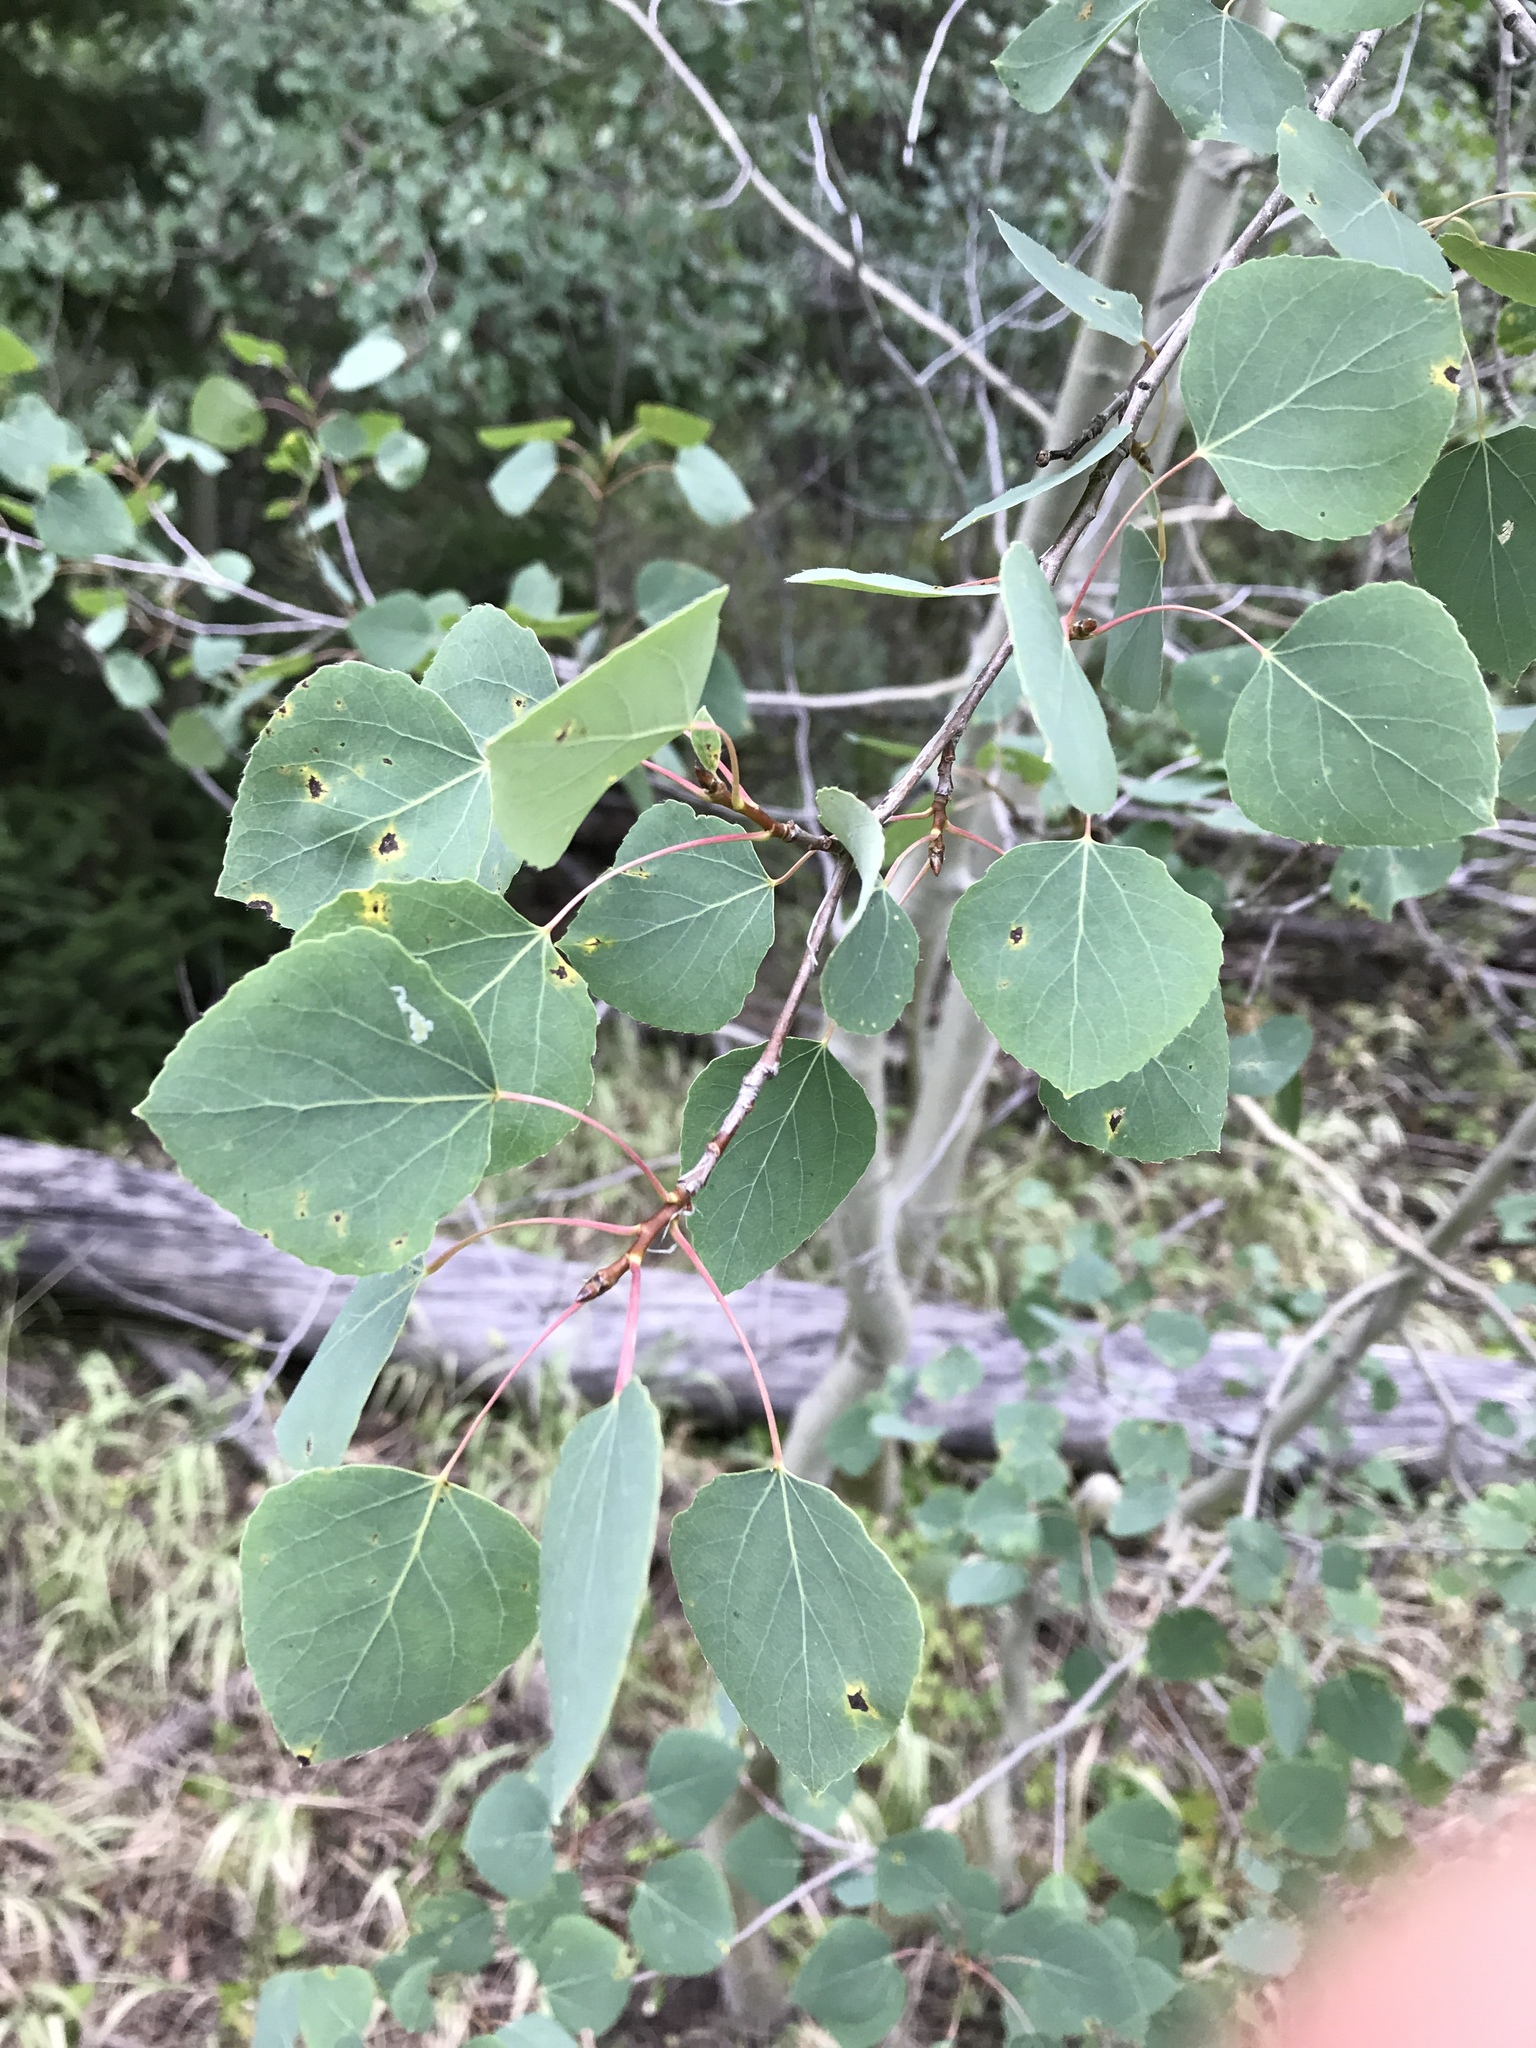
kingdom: Plantae
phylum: Tracheophyta
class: Magnoliopsida
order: Malpighiales
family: Salicaceae
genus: Populus
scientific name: Populus tremuloides
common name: Quaking aspen
